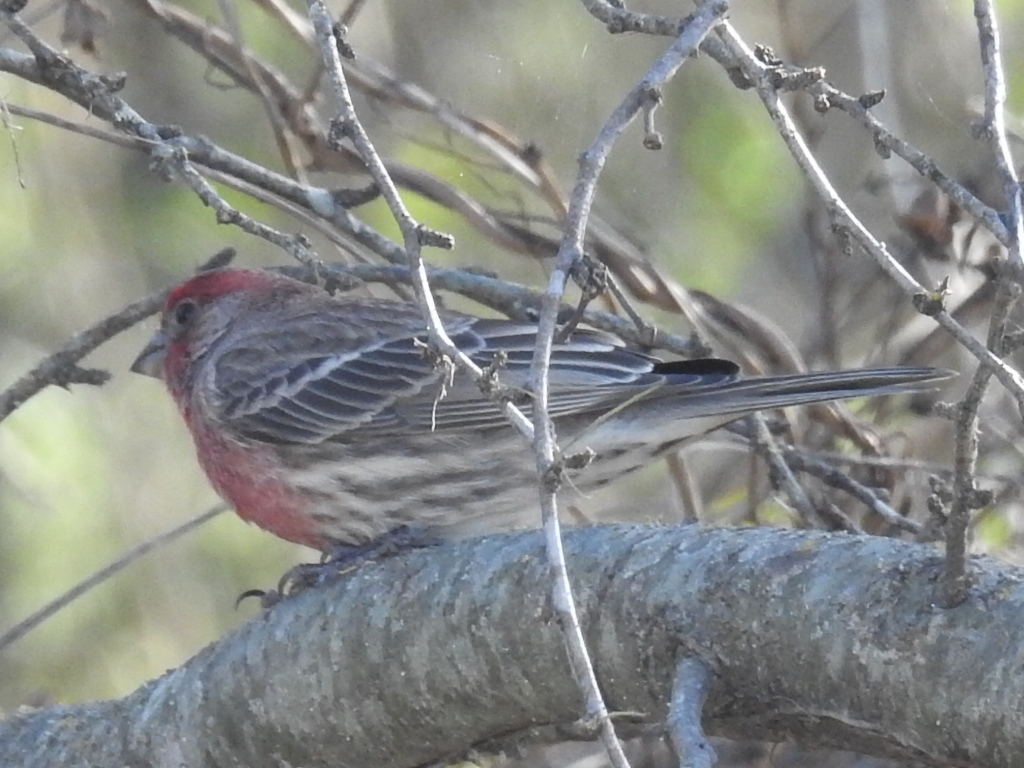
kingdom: Animalia
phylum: Chordata
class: Aves
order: Passeriformes
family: Fringillidae
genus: Haemorhous
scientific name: Haemorhous mexicanus
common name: House finch
